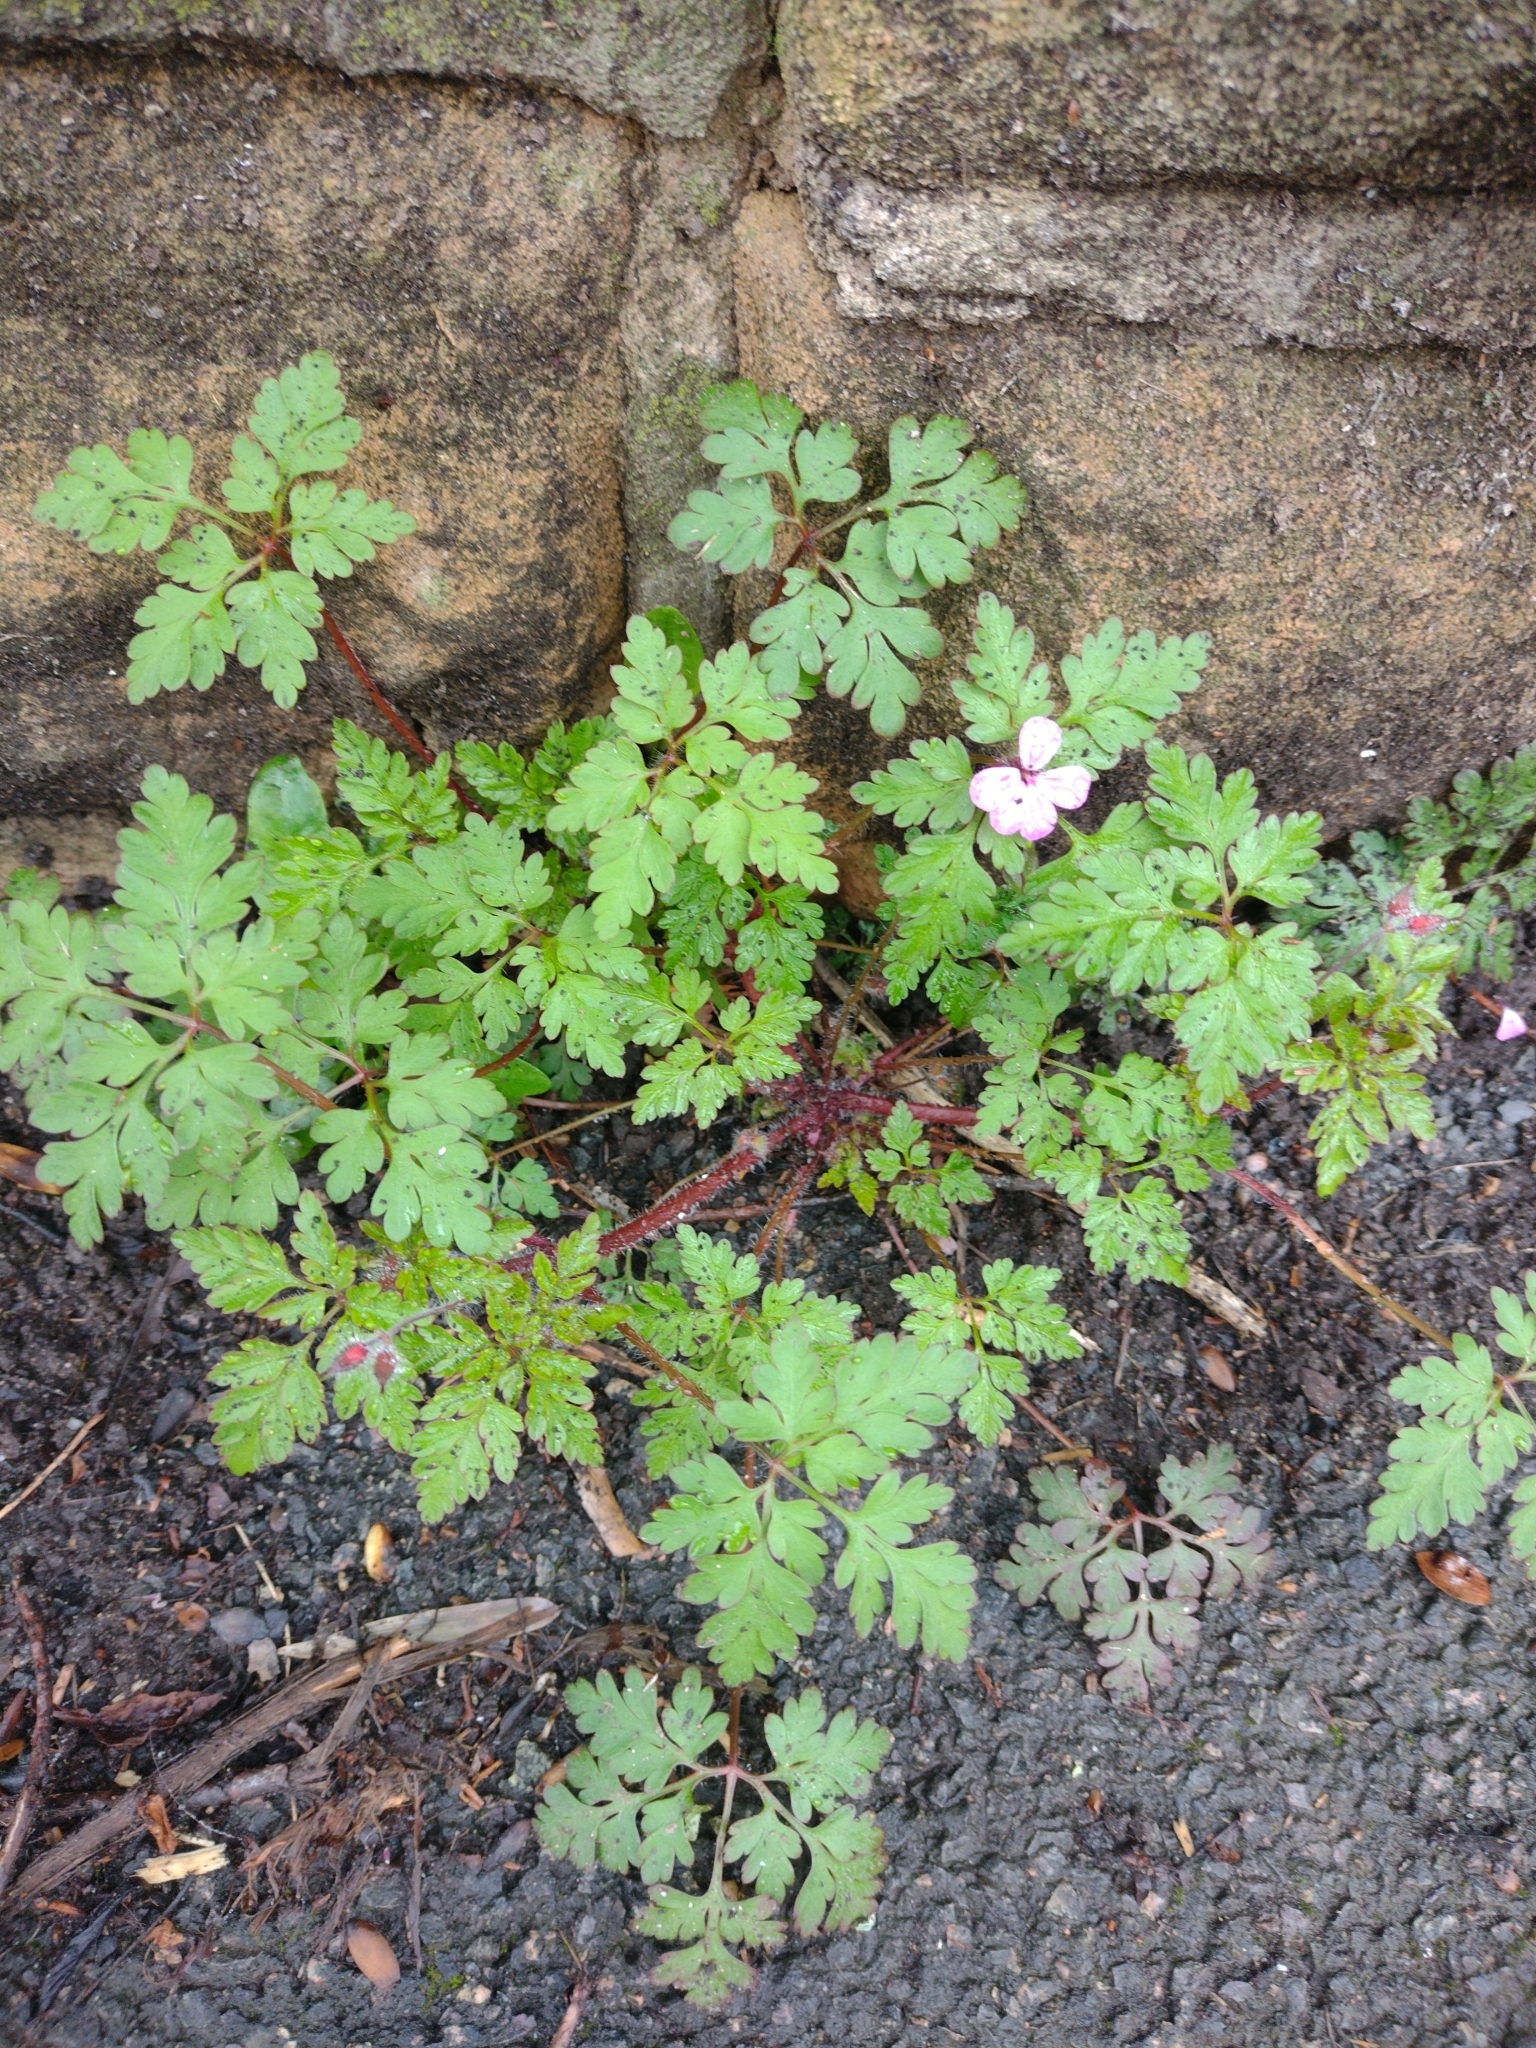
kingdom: Plantae
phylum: Tracheophyta
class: Magnoliopsida
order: Geraniales
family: Geraniaceae
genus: Geranium
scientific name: Geranium robertianum
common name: Herb-robert
